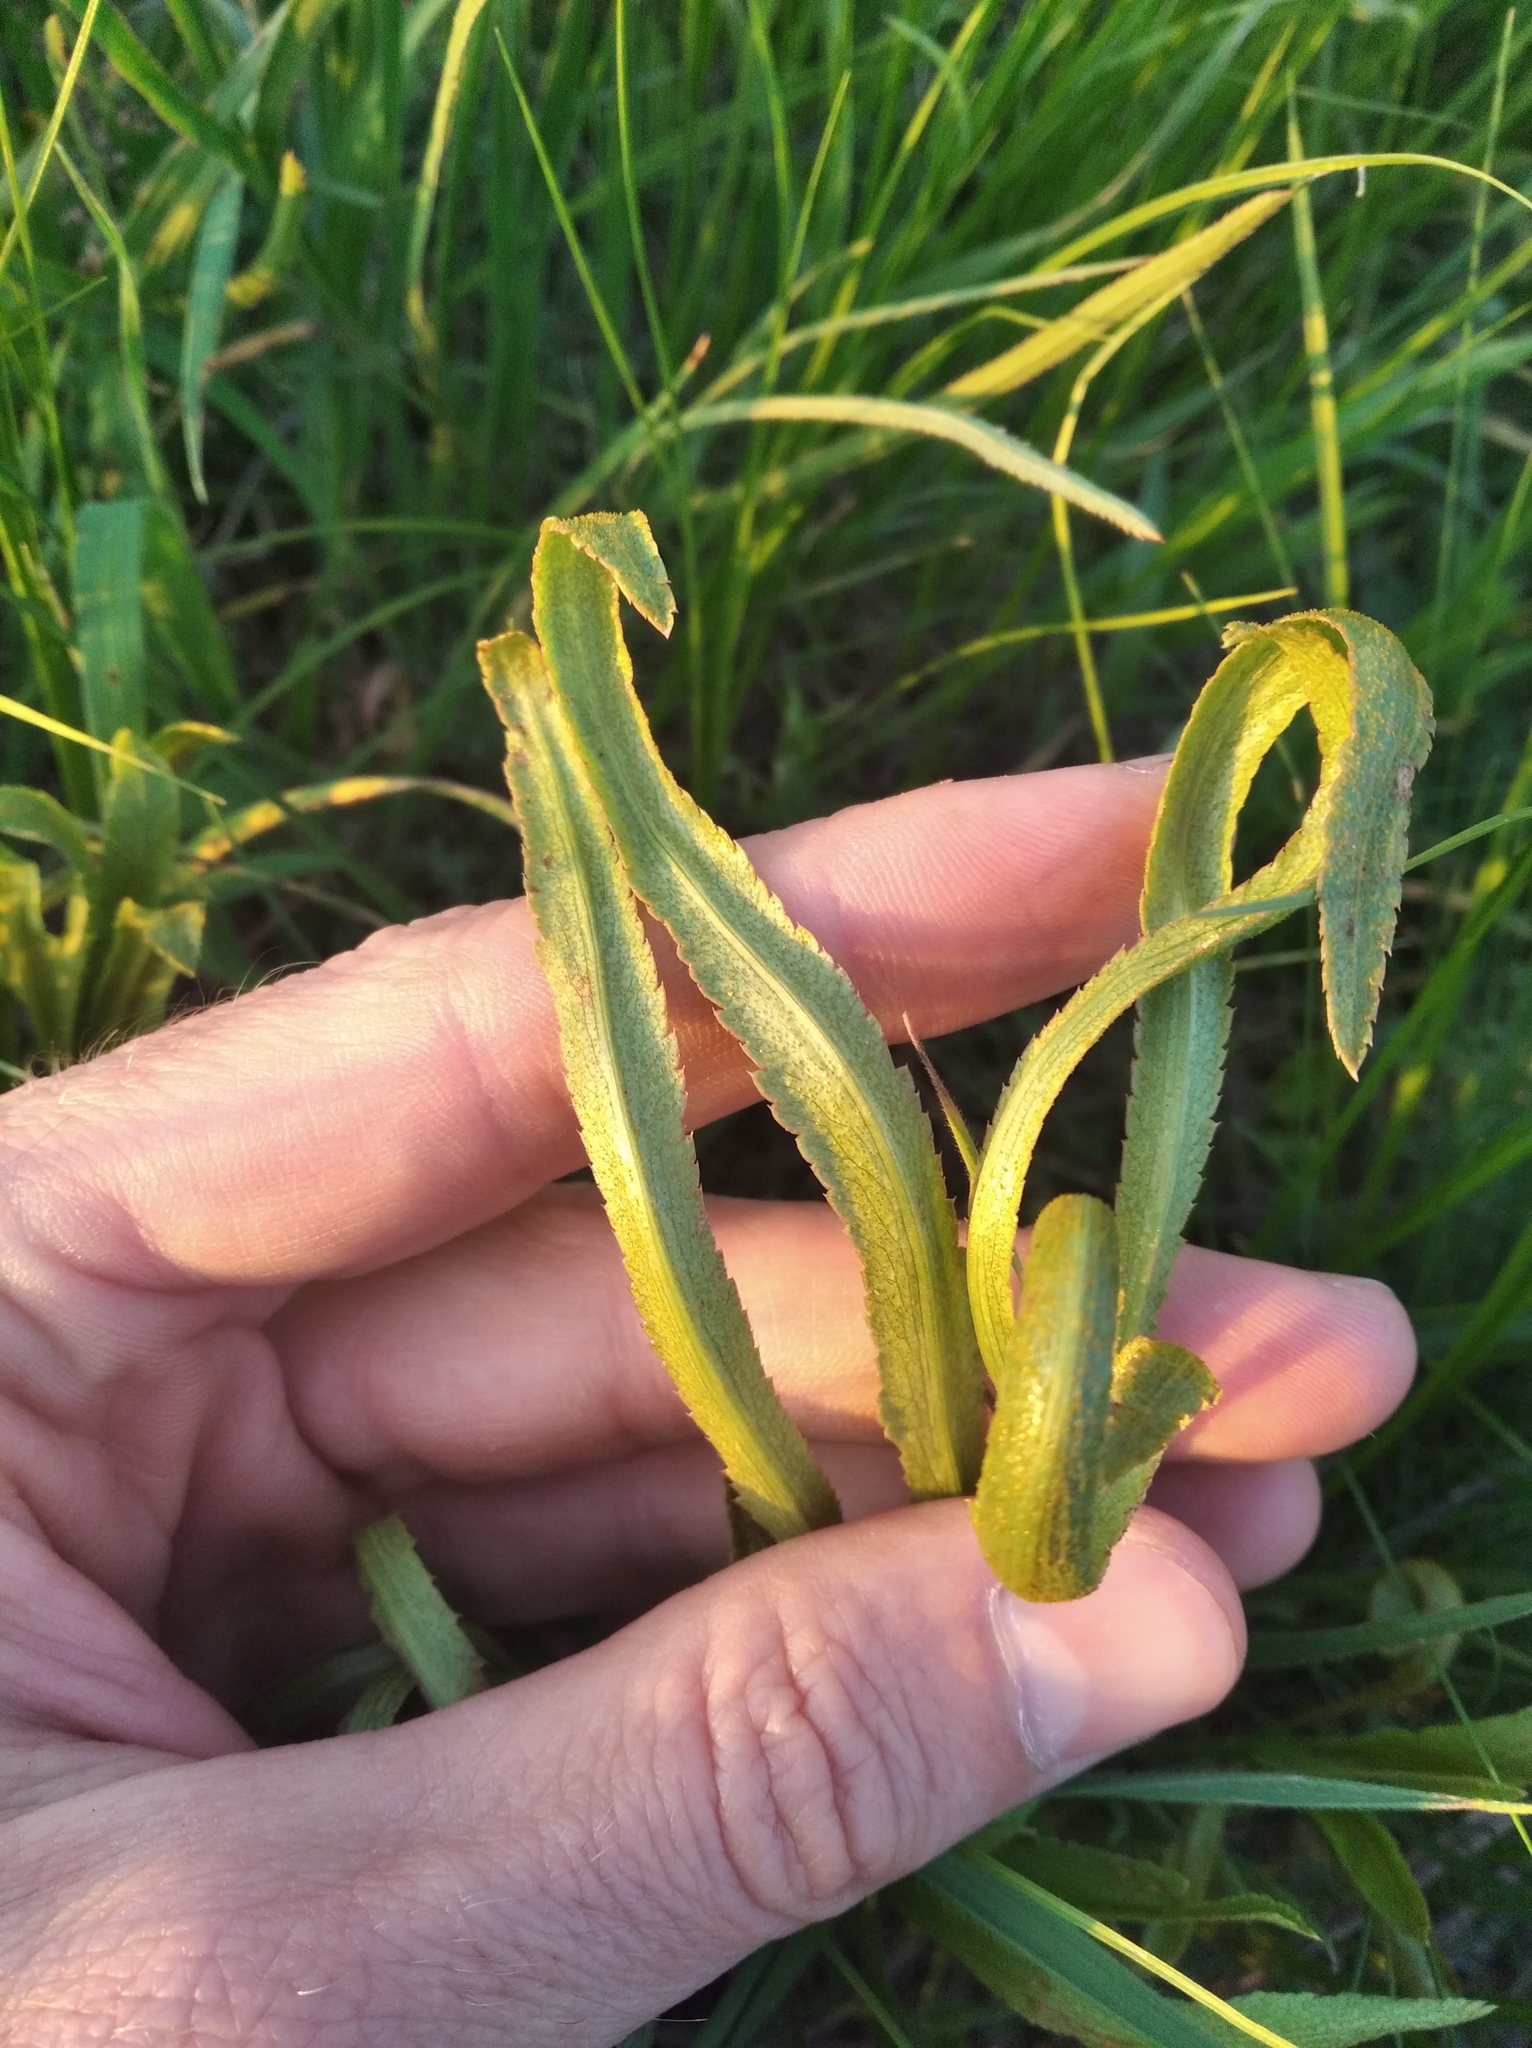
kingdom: Plantae
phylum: Tracheophyta
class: Magnoliopsida
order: Apiales
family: Apiaceae
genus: Falcaria
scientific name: Falcaria vulgaris
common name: Longleaf
